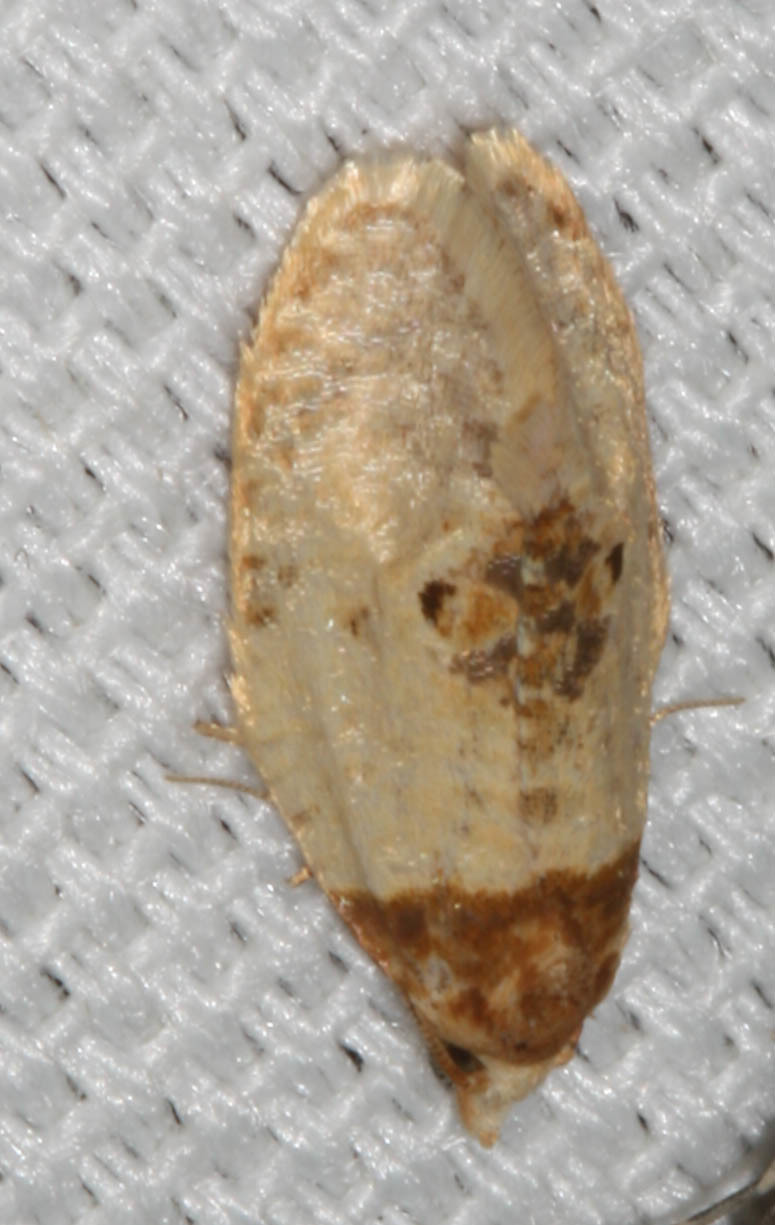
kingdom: Animalia
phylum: Arthropoda
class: Insecta
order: Lepidoptera
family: Tortricidae
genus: Henricus
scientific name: Henricus umbrabasana
